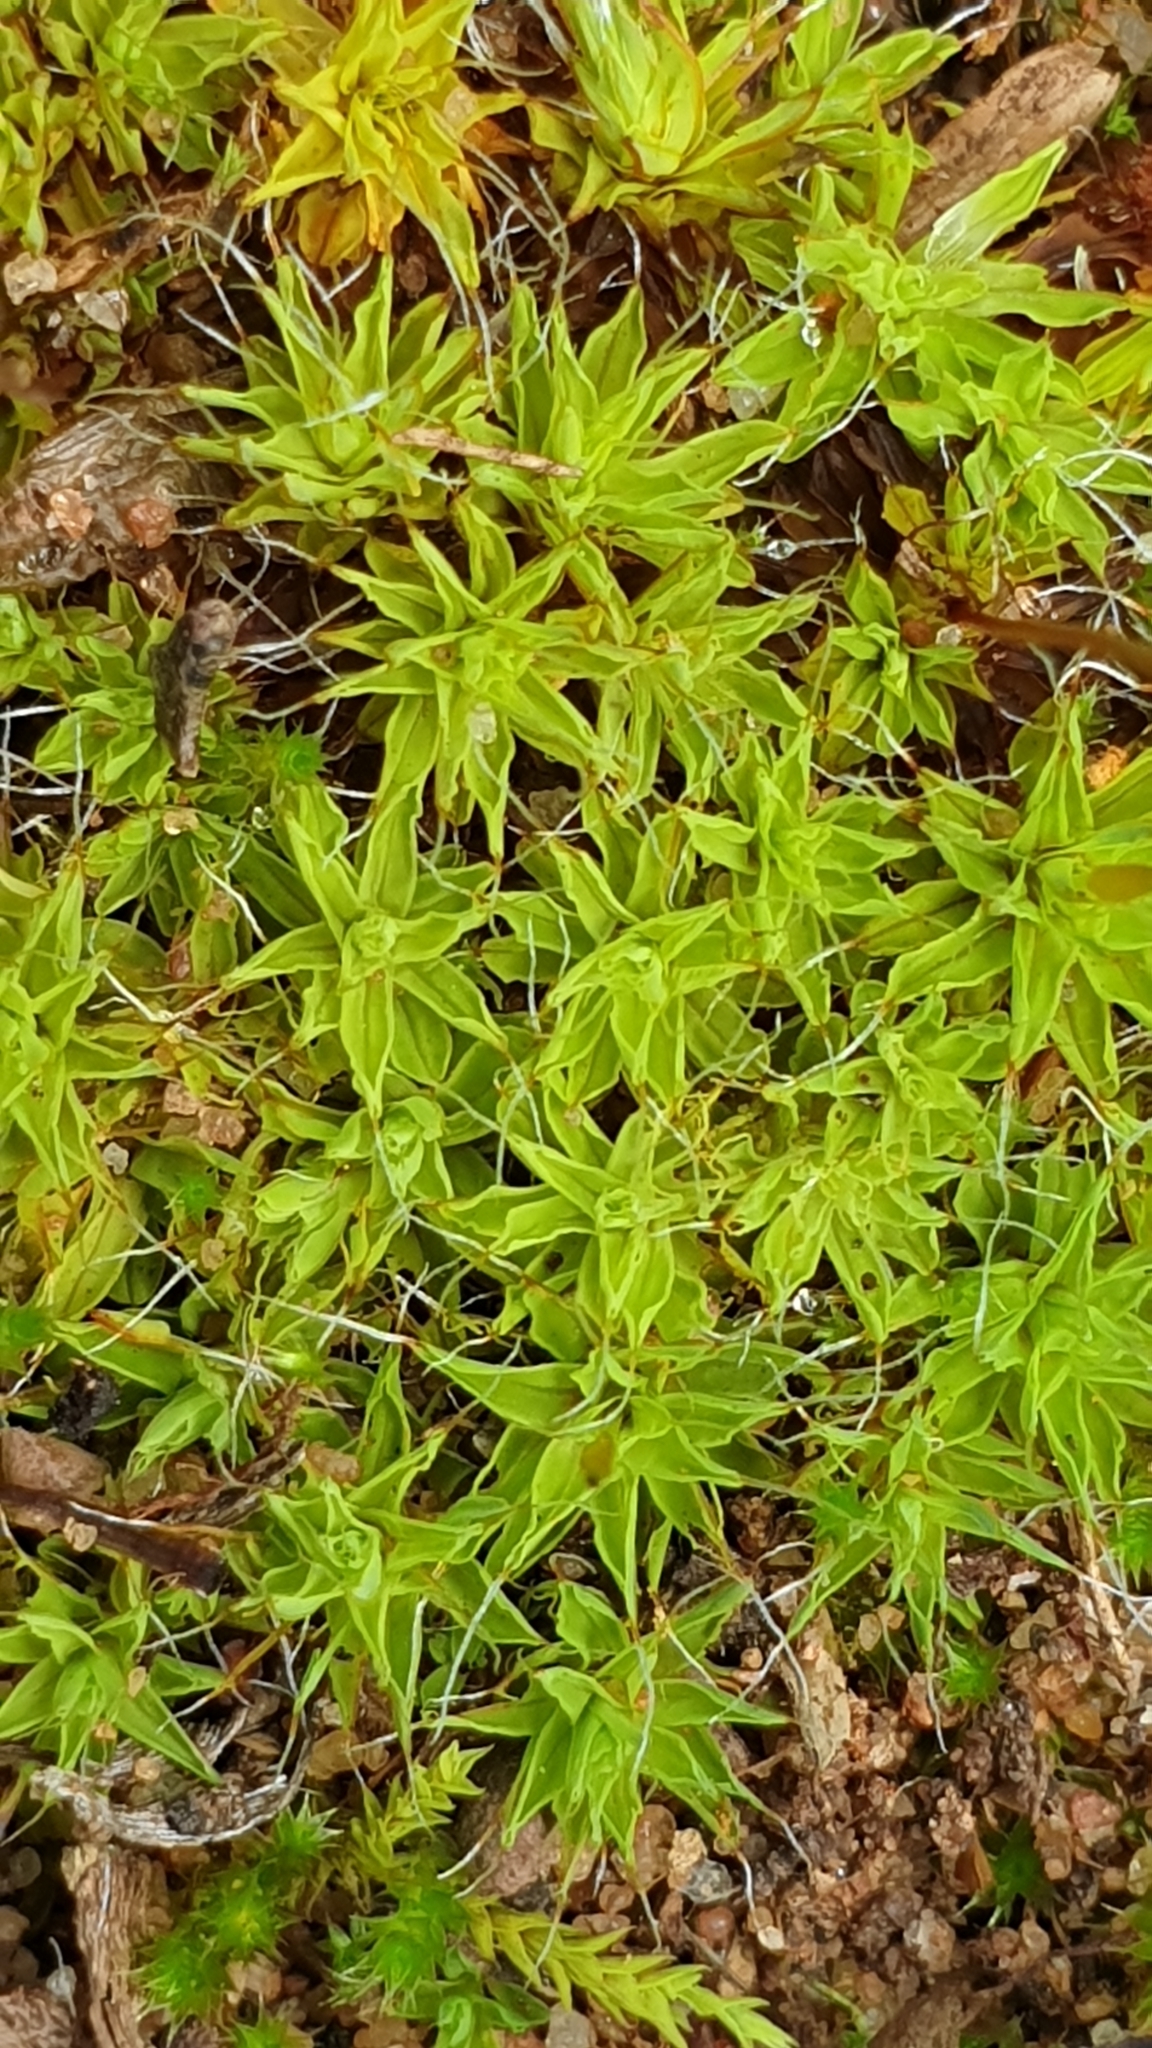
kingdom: Plantae
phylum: Bryophyta
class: Bryopsida
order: Pottiales
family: Pottiaceae
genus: Pseudocrossidium
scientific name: Pseudocrossidium crinitum
